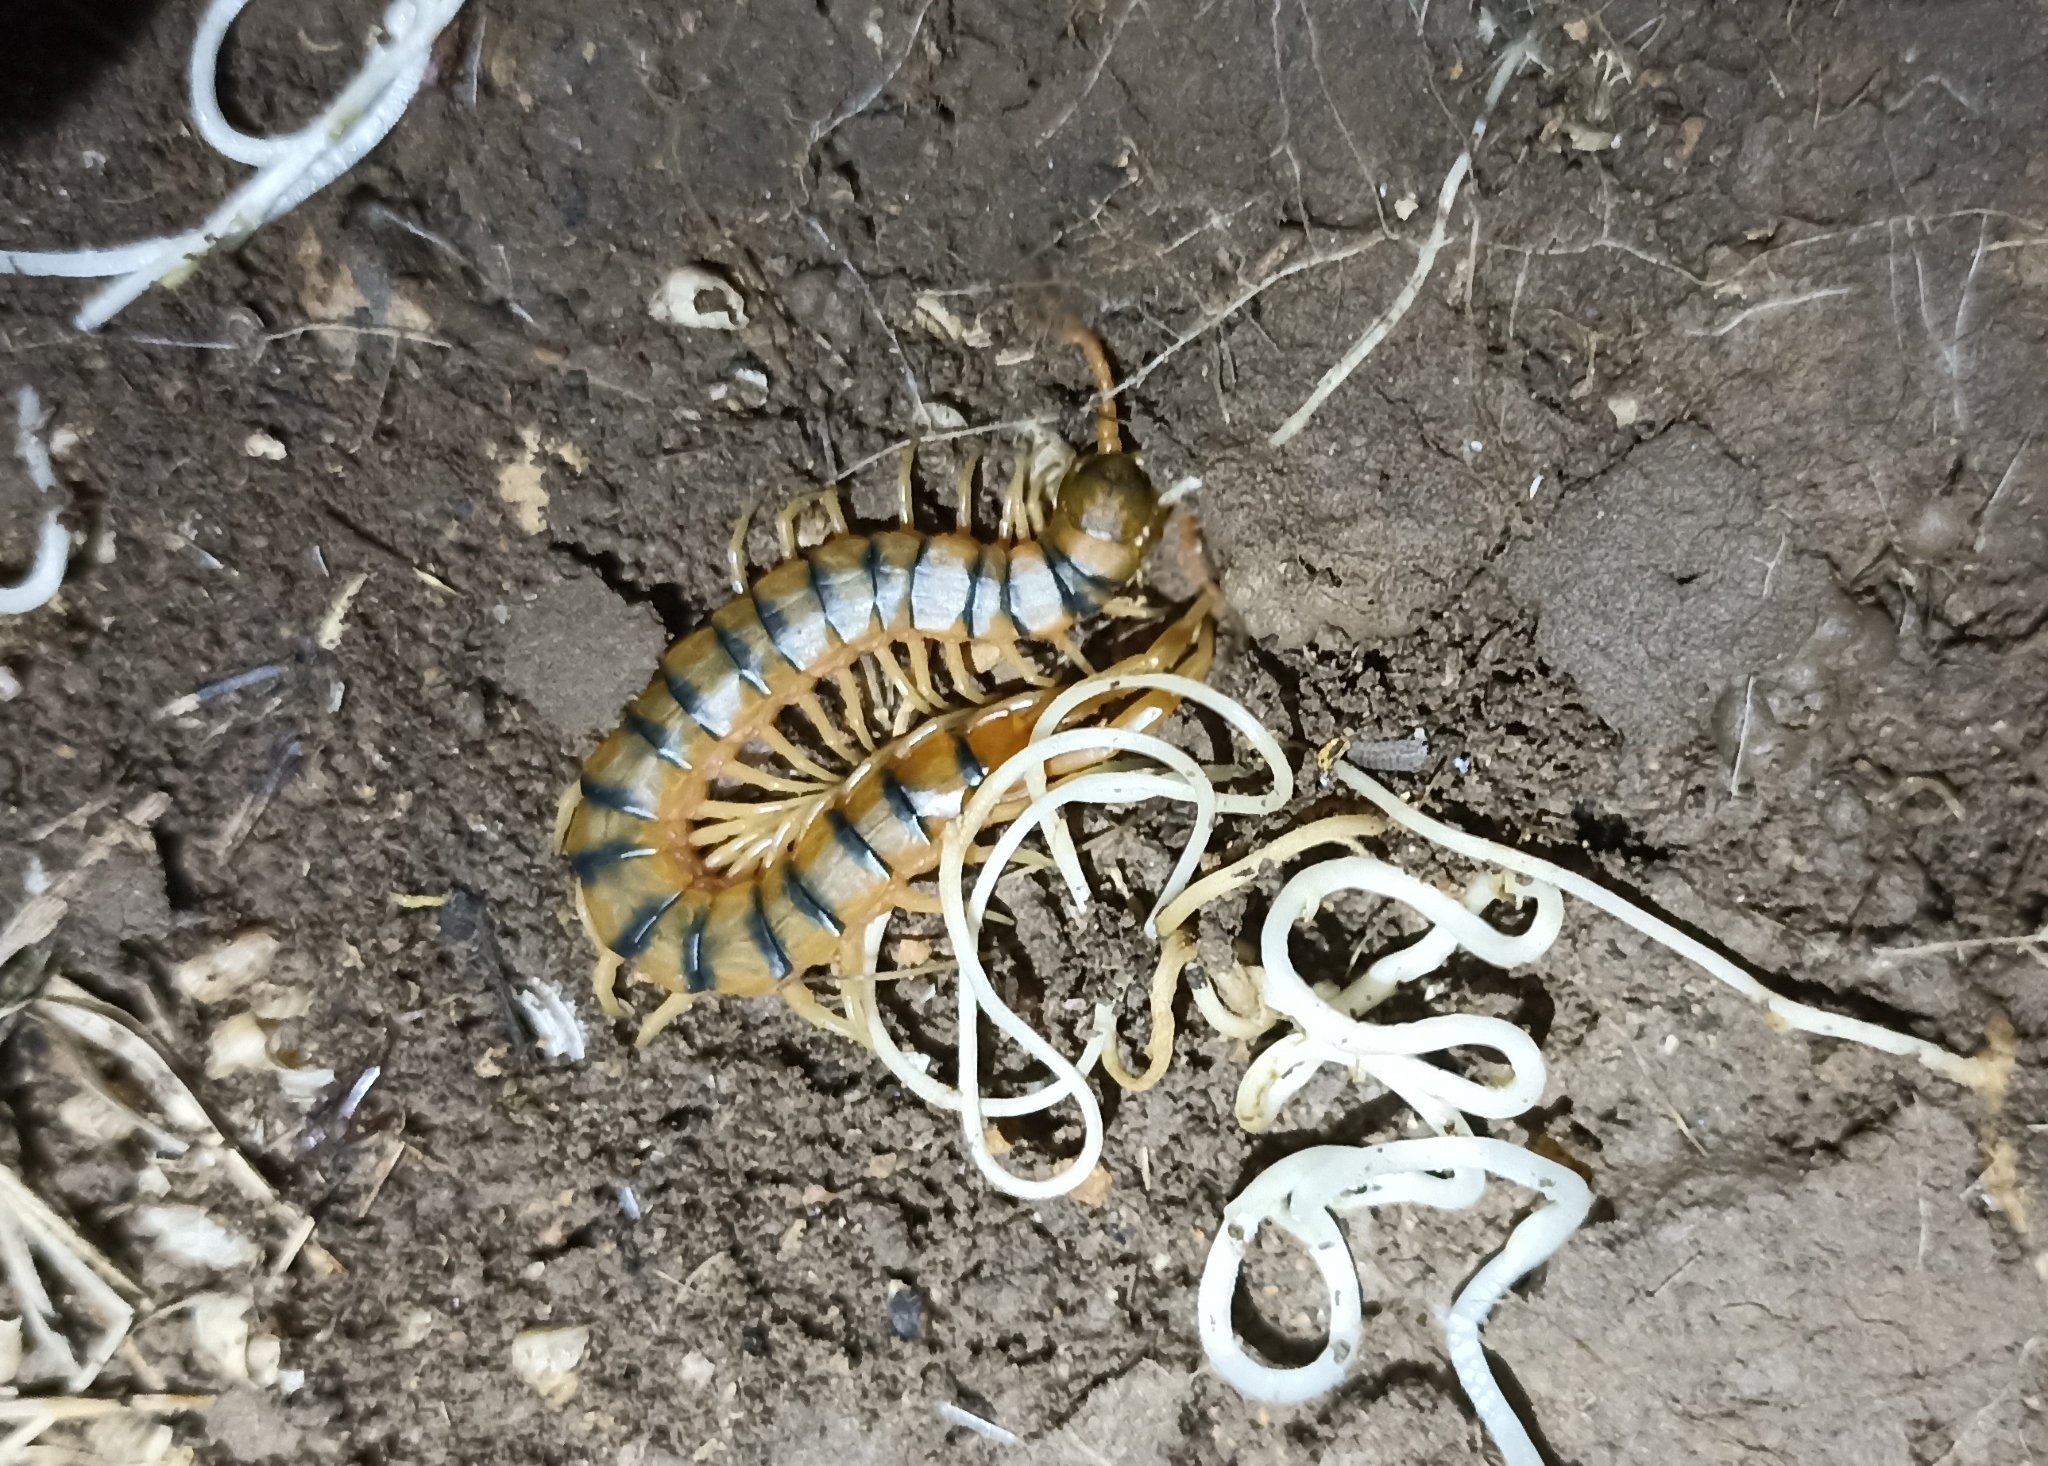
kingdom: Animalia
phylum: Arthropoda
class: Chilopoda
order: Scolopendromorpha
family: Scolopendridae
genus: Scolopendra
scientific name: Scolopendra cingulata
